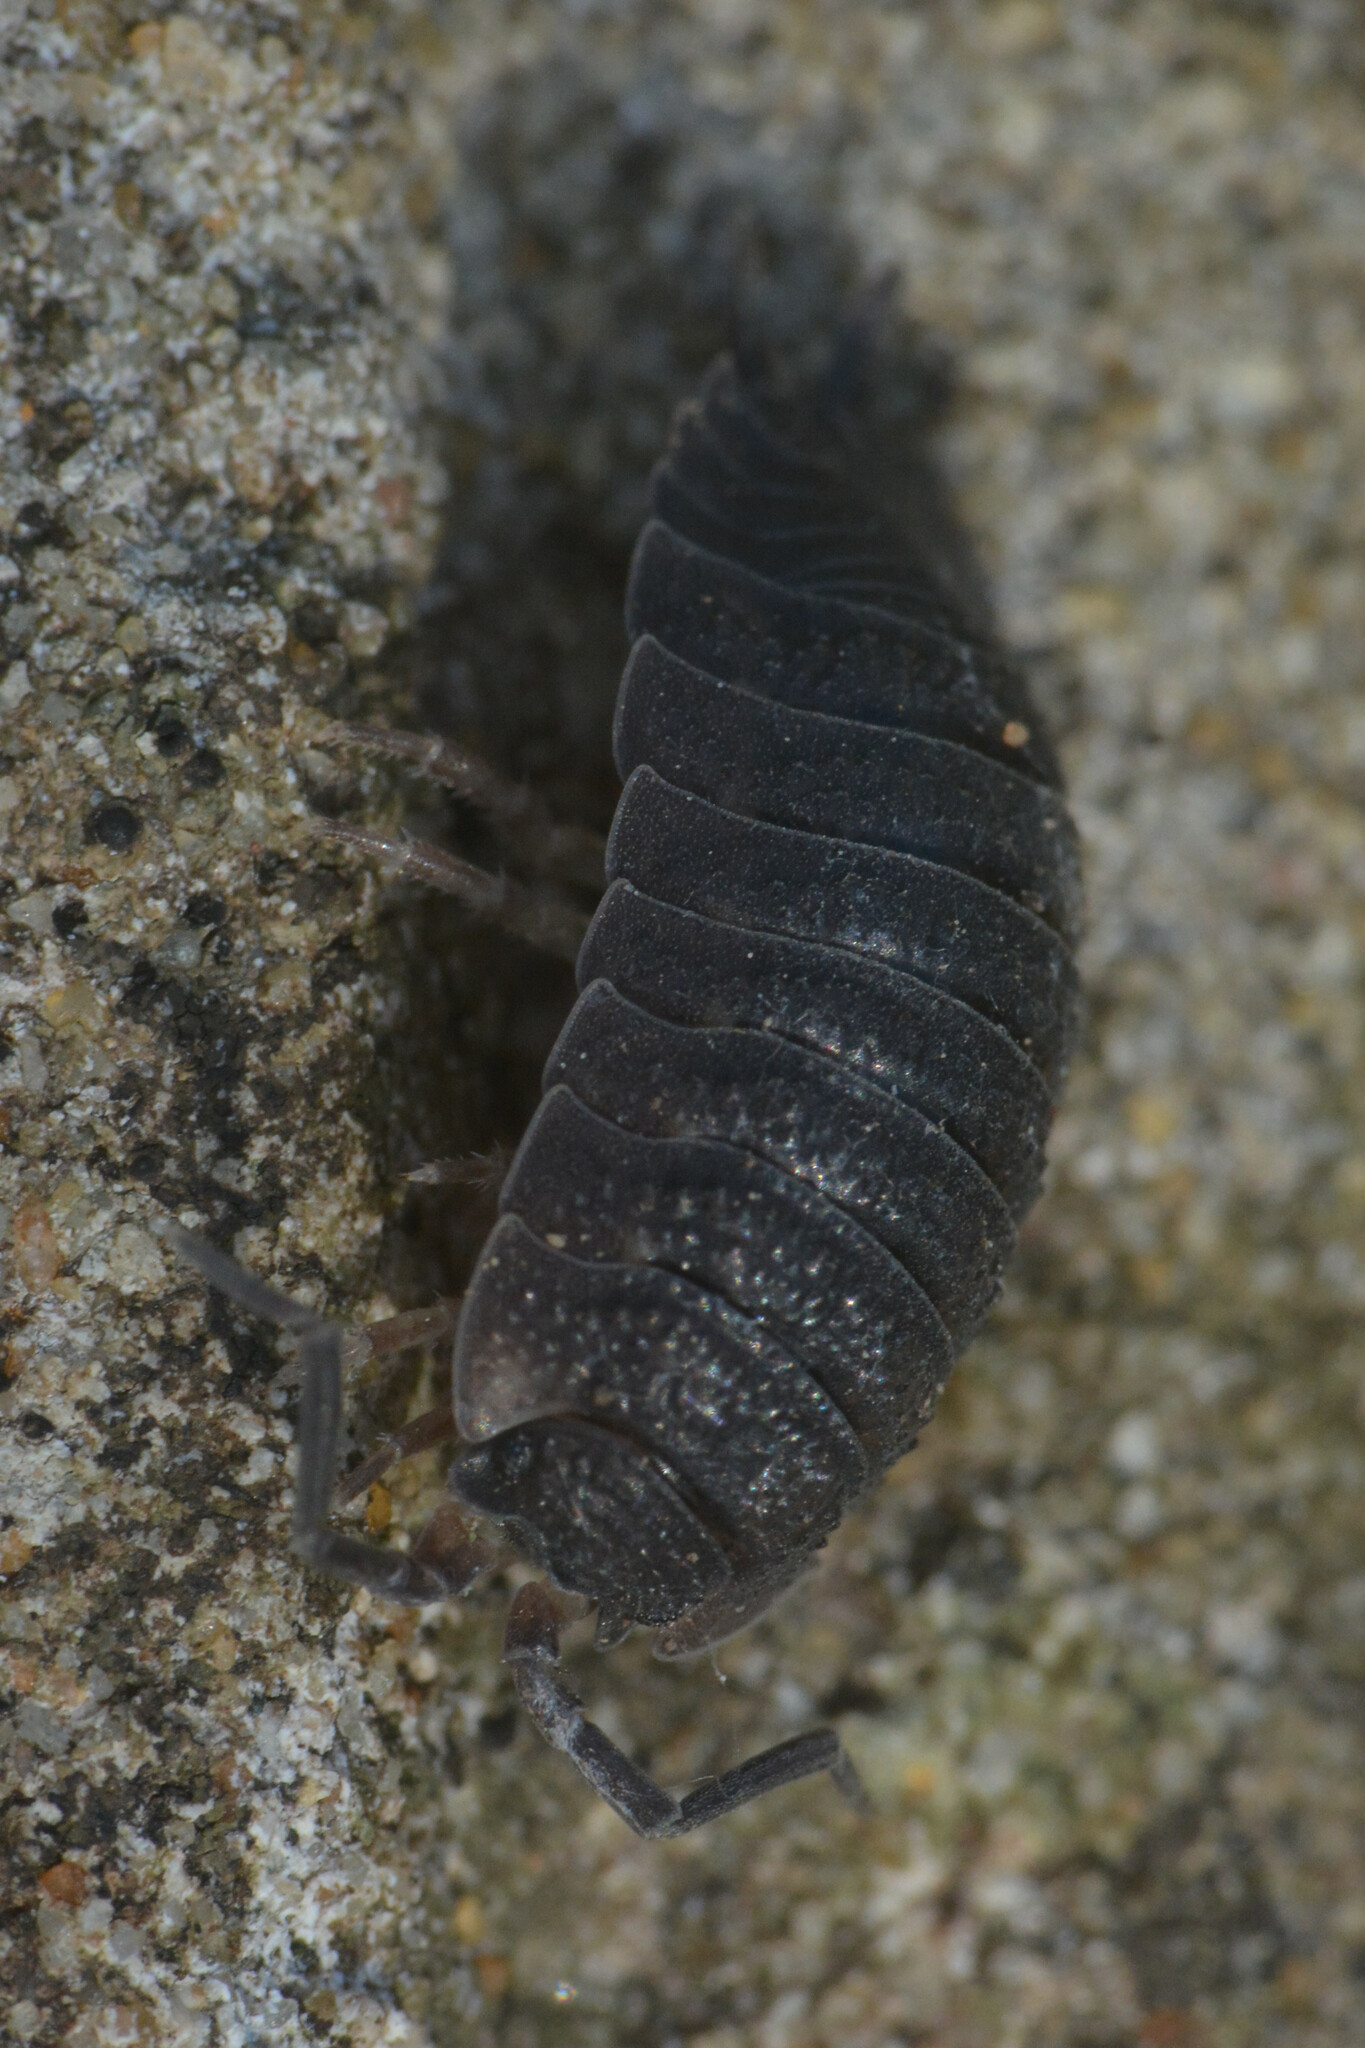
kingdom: Animalia
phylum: Arthropoda
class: Malacostraca
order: Isopoda
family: Porcellionidae
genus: Porcellio
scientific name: Porcellio scaber
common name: Common rough woodlouse
